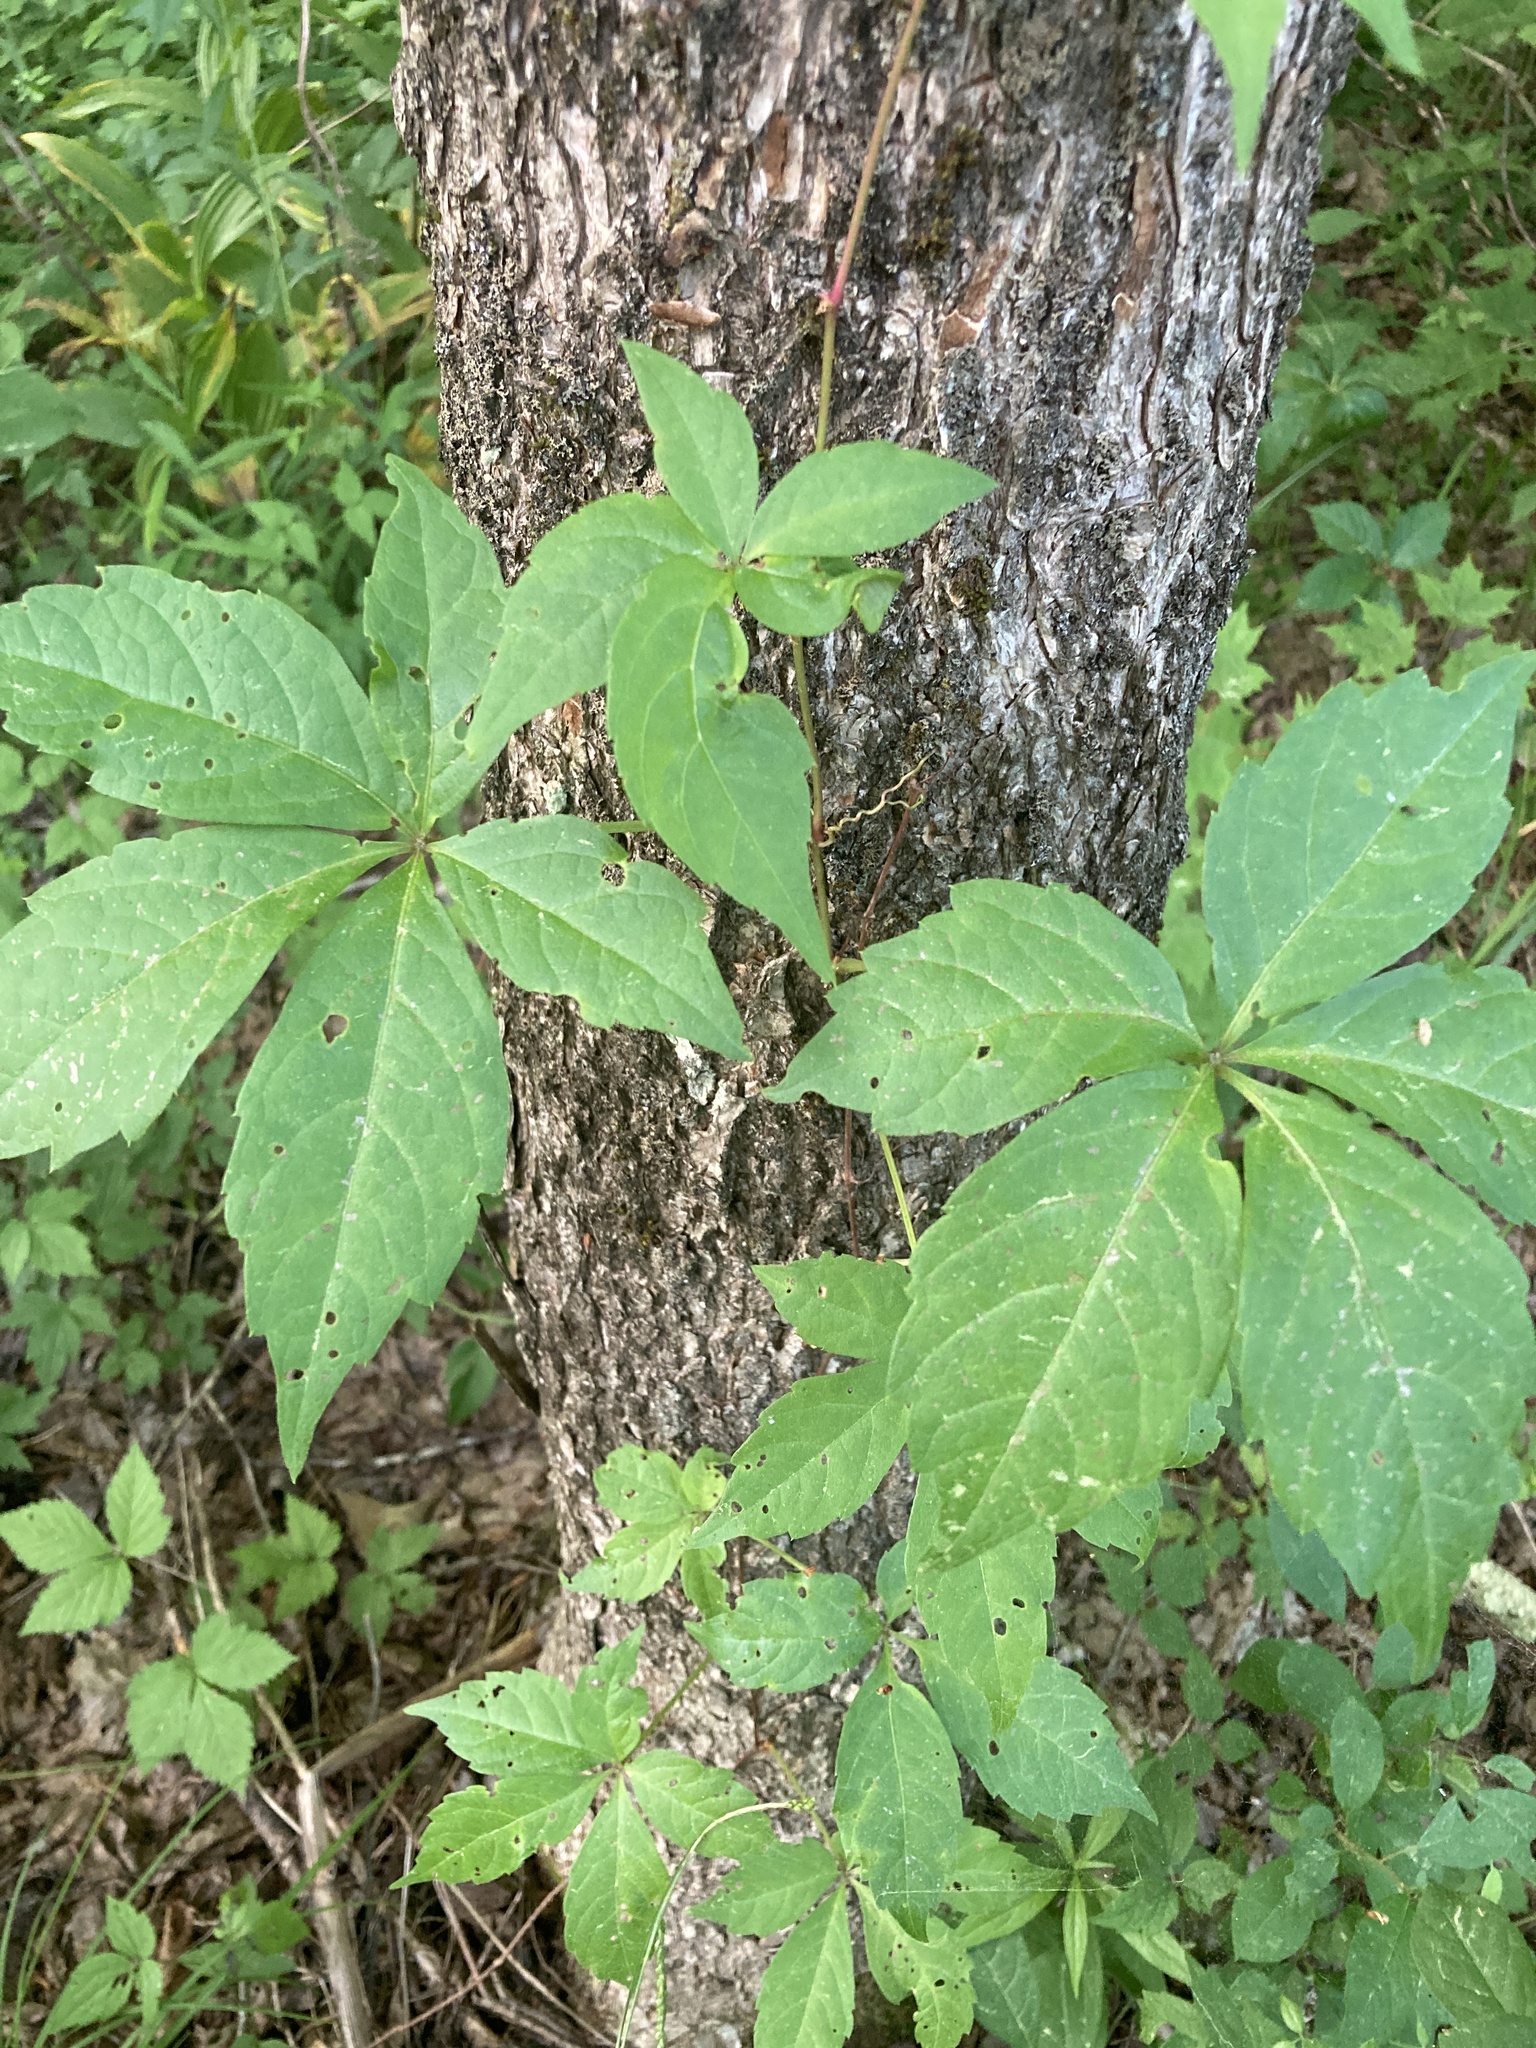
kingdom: Plantae
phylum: Tracheophyta
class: Magnoliopsida
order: Vitales
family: Vitaceae
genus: Parthenocissus
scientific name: Parthenocissus quinquefolia
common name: Virginia-creeper
